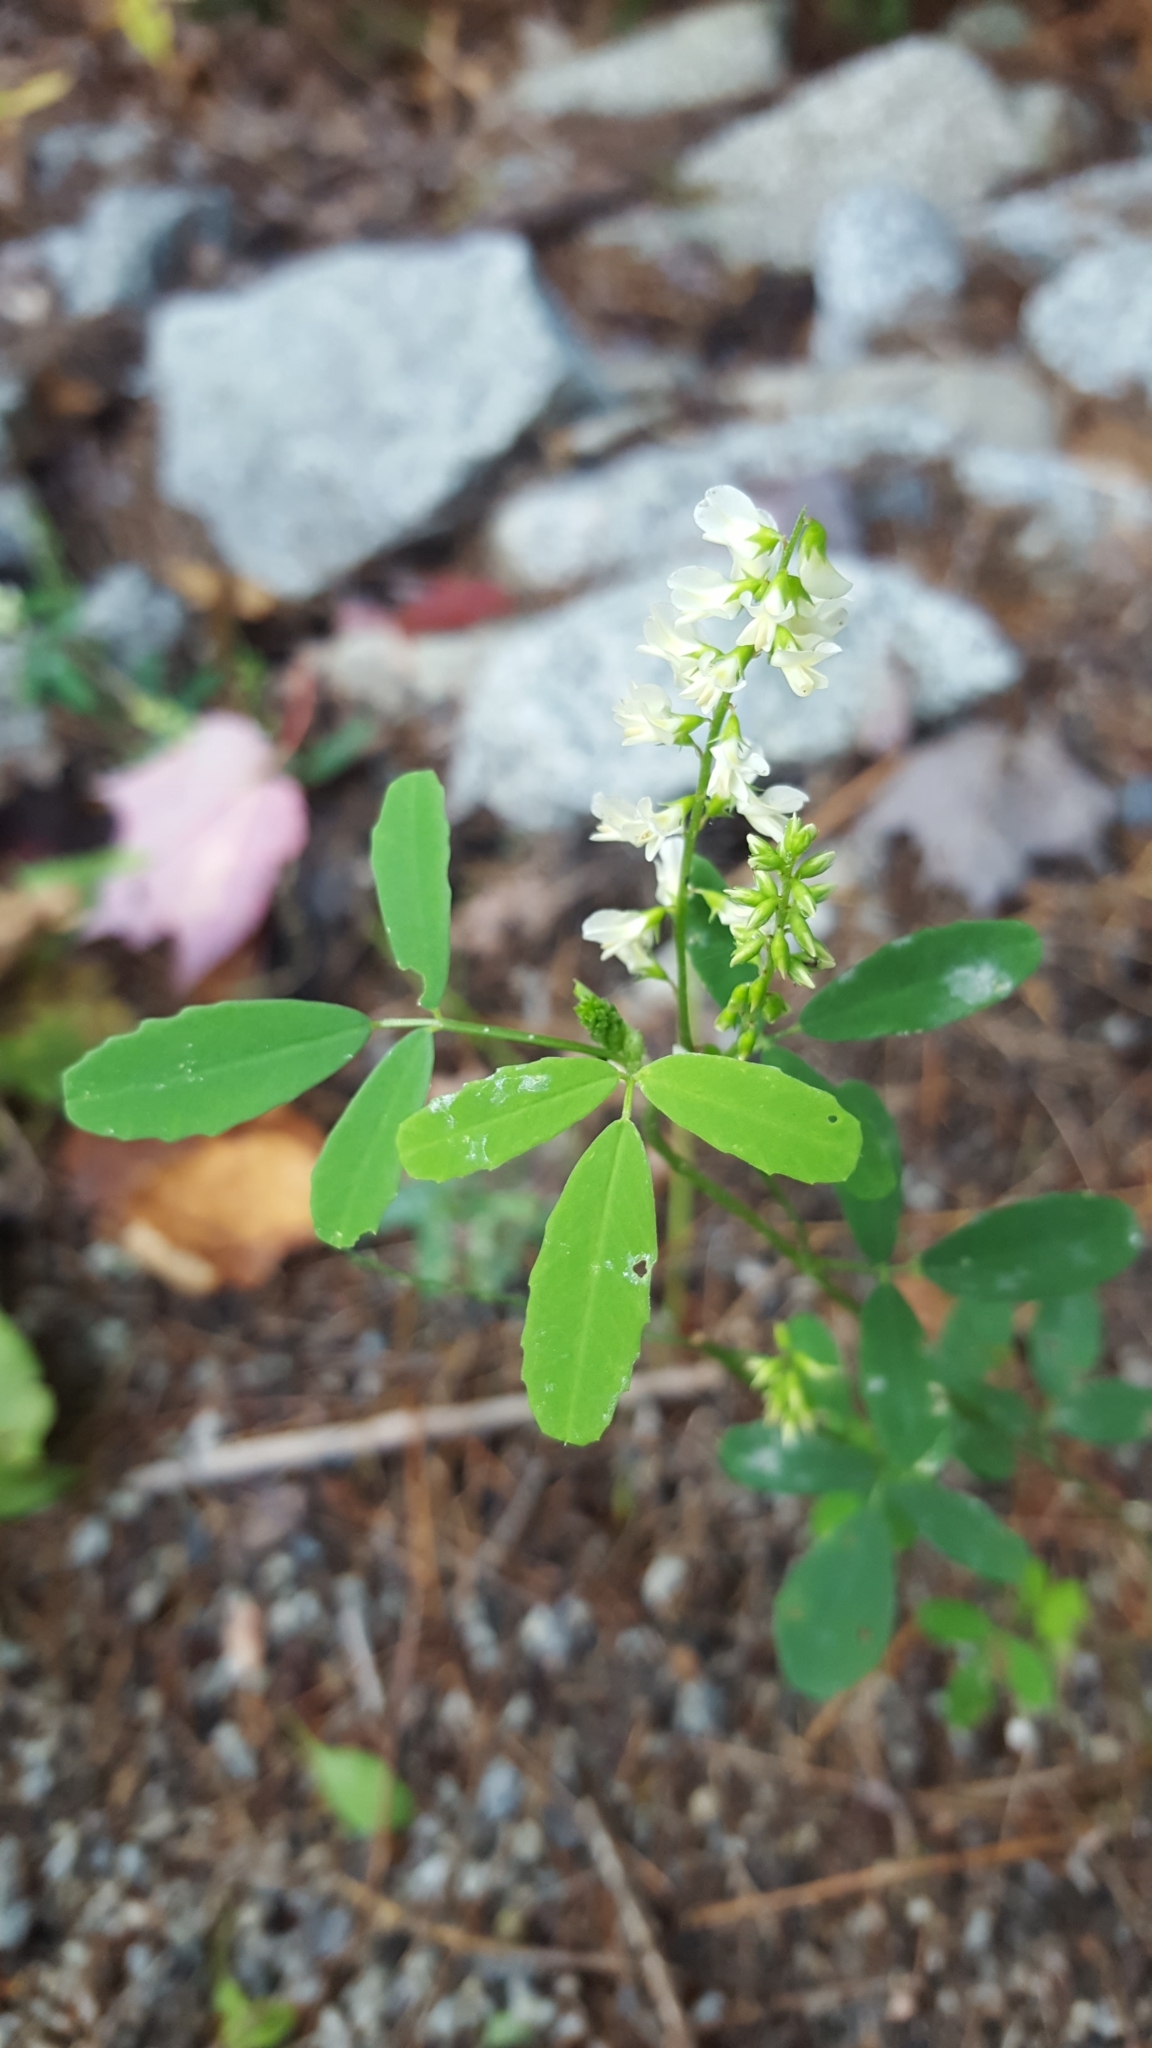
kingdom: Plantae
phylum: Tracheophyta
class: Magnoliopsida
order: Fabales
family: Fabaceae
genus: Melilotus
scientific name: Melilotus albus
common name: White melilot
